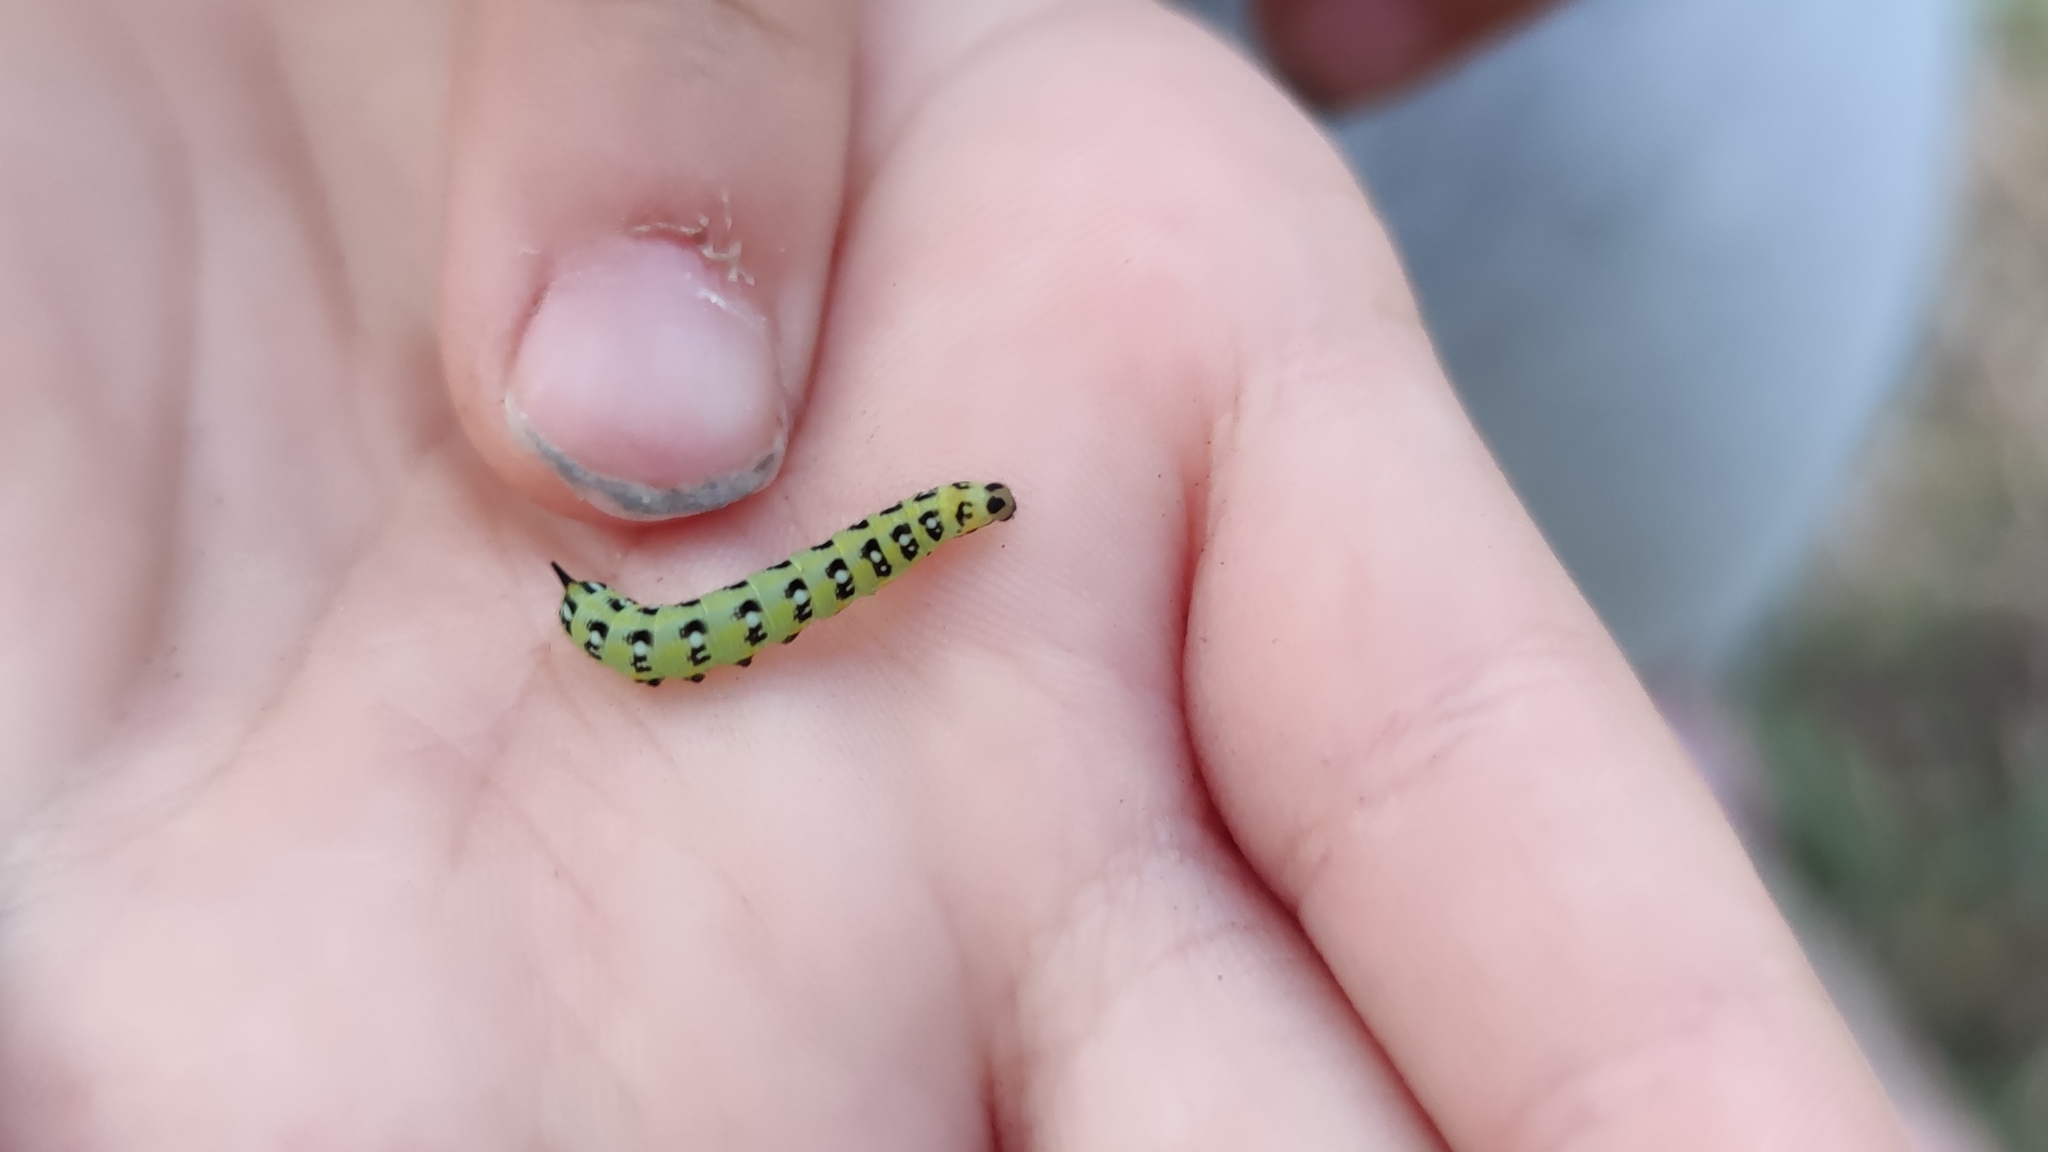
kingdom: Animalia
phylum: Arthropoda
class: Insecta
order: Lepidoptera
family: Sphingidae
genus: Hyles
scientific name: Hyles euphorbiae
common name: Spurge hawk-moth
